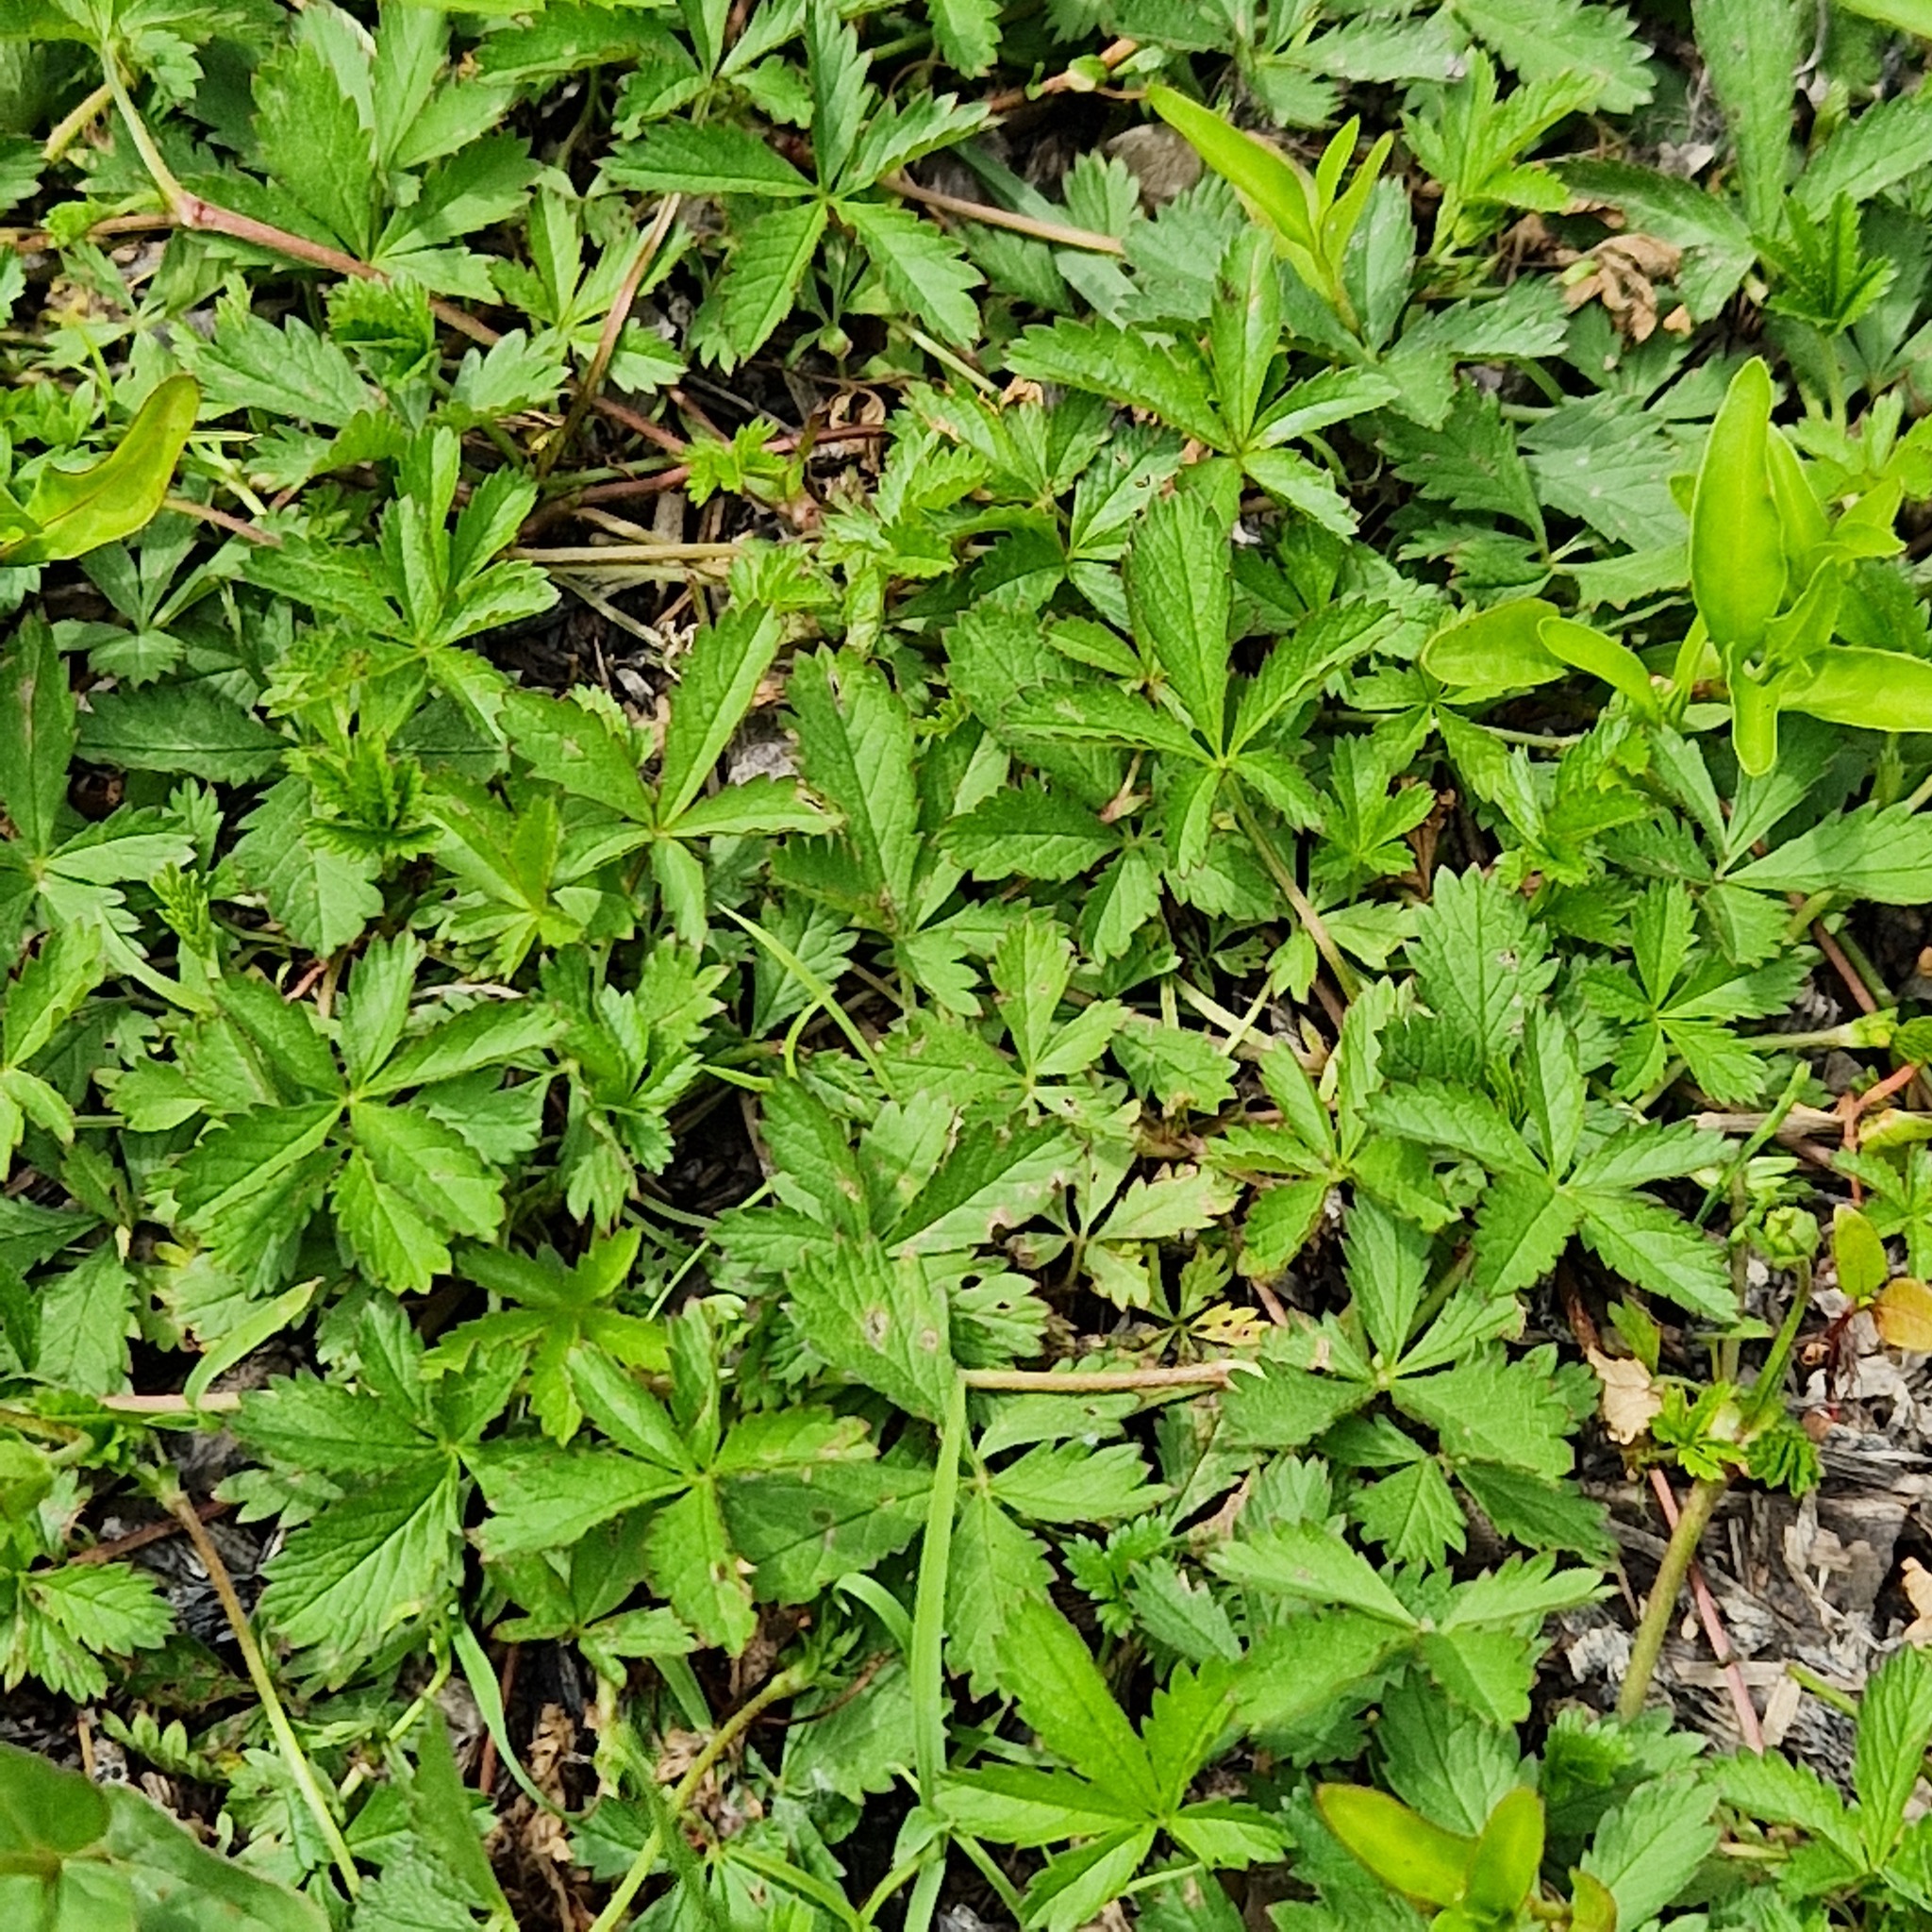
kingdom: Plantae
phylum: Tracheophyta
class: Magnoliopsida
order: Rosales
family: Rosaceae
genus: Potentilla
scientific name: Potentilla reptans
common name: Creeping cinquefoil
